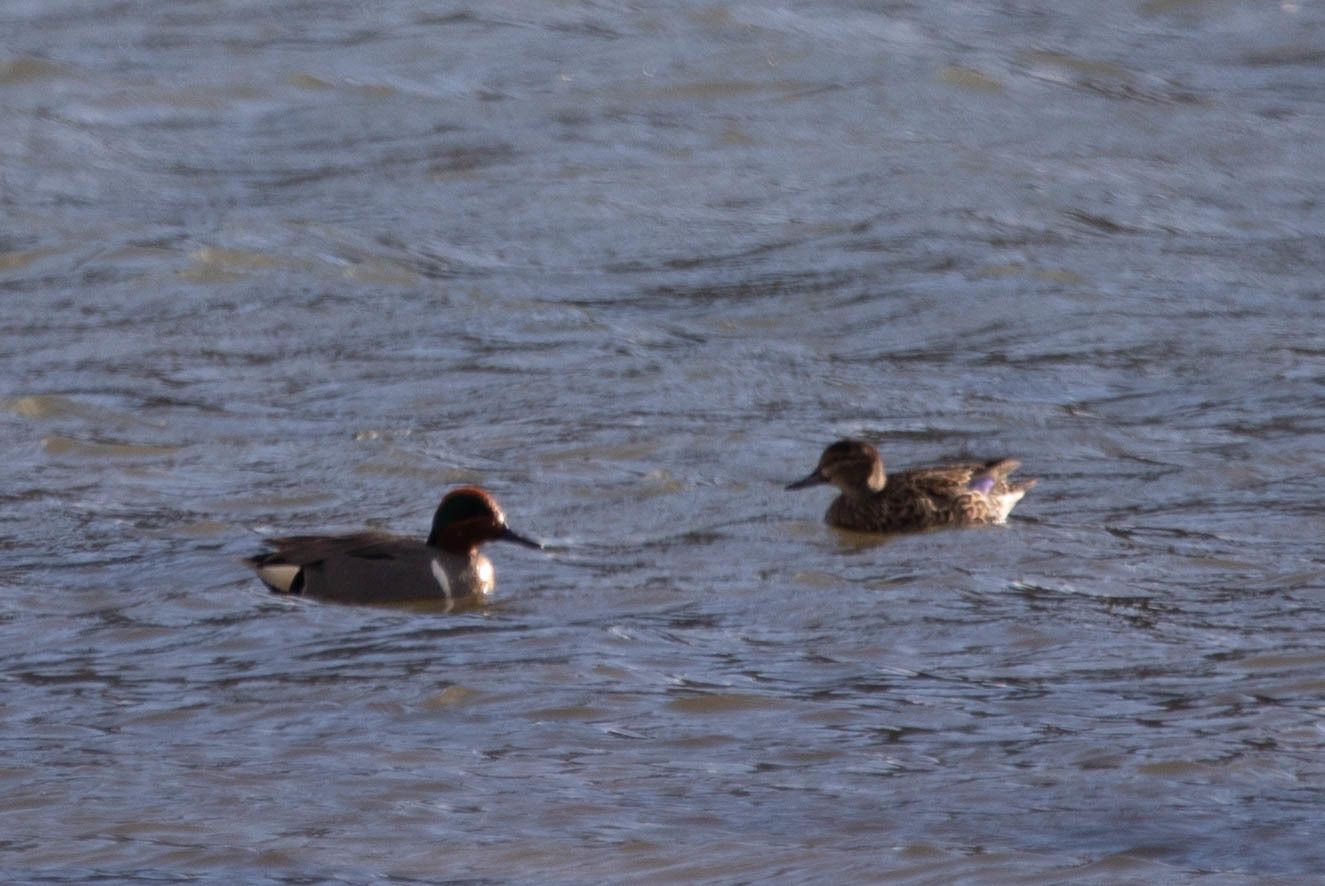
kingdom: Animalia
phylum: Chordata
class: Aves
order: Anseriformes
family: Anatidae
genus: Anas
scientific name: Anas carolinensis
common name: Green-winged teal
